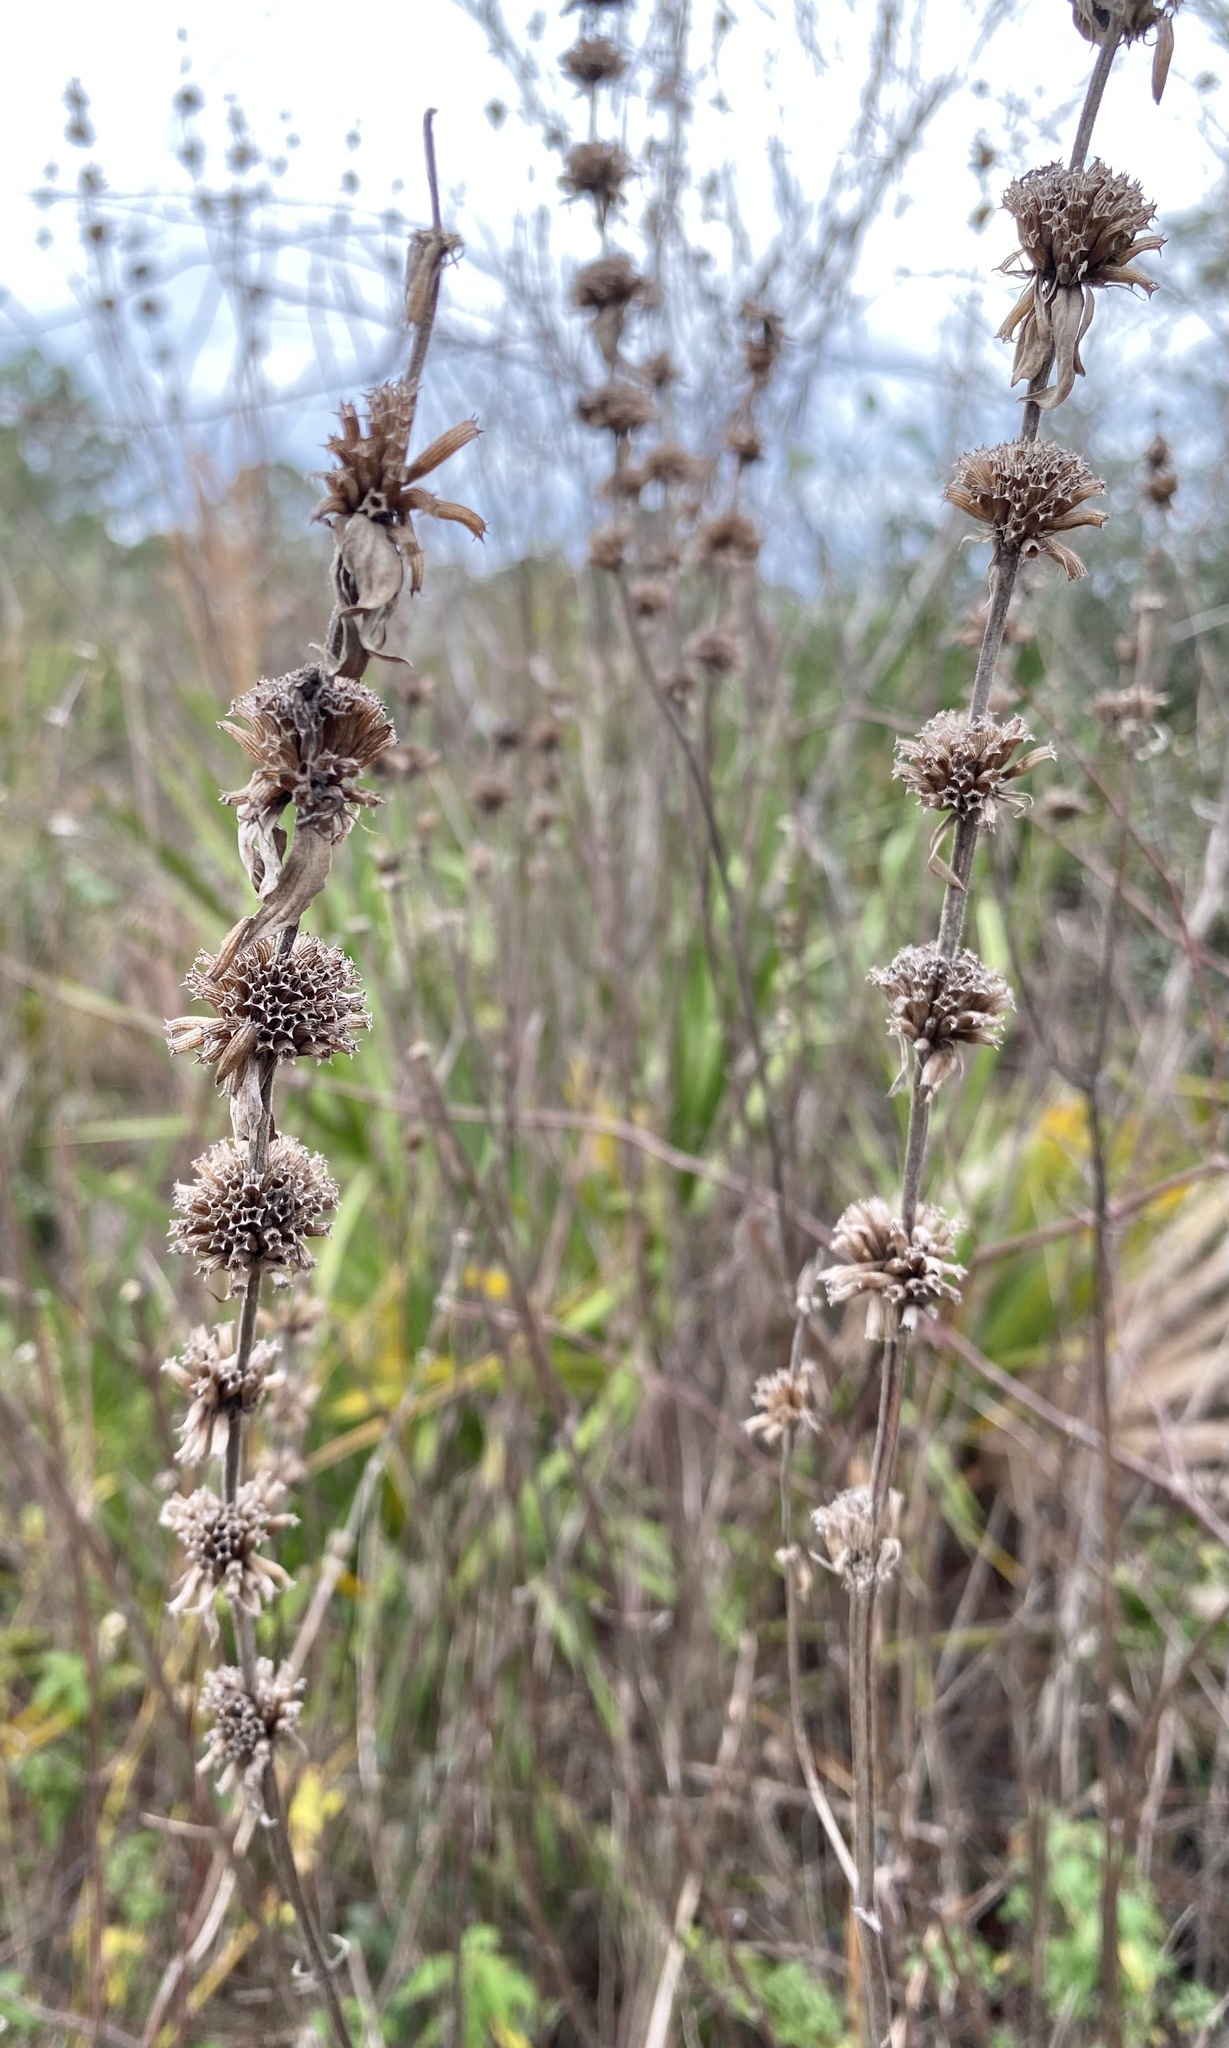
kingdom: Plantae
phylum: Tracheophyta
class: Magnoliopsida
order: Lamiales
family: Lamiaceae
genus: Monarda
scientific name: Monarda punctata
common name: Dotted monarda
